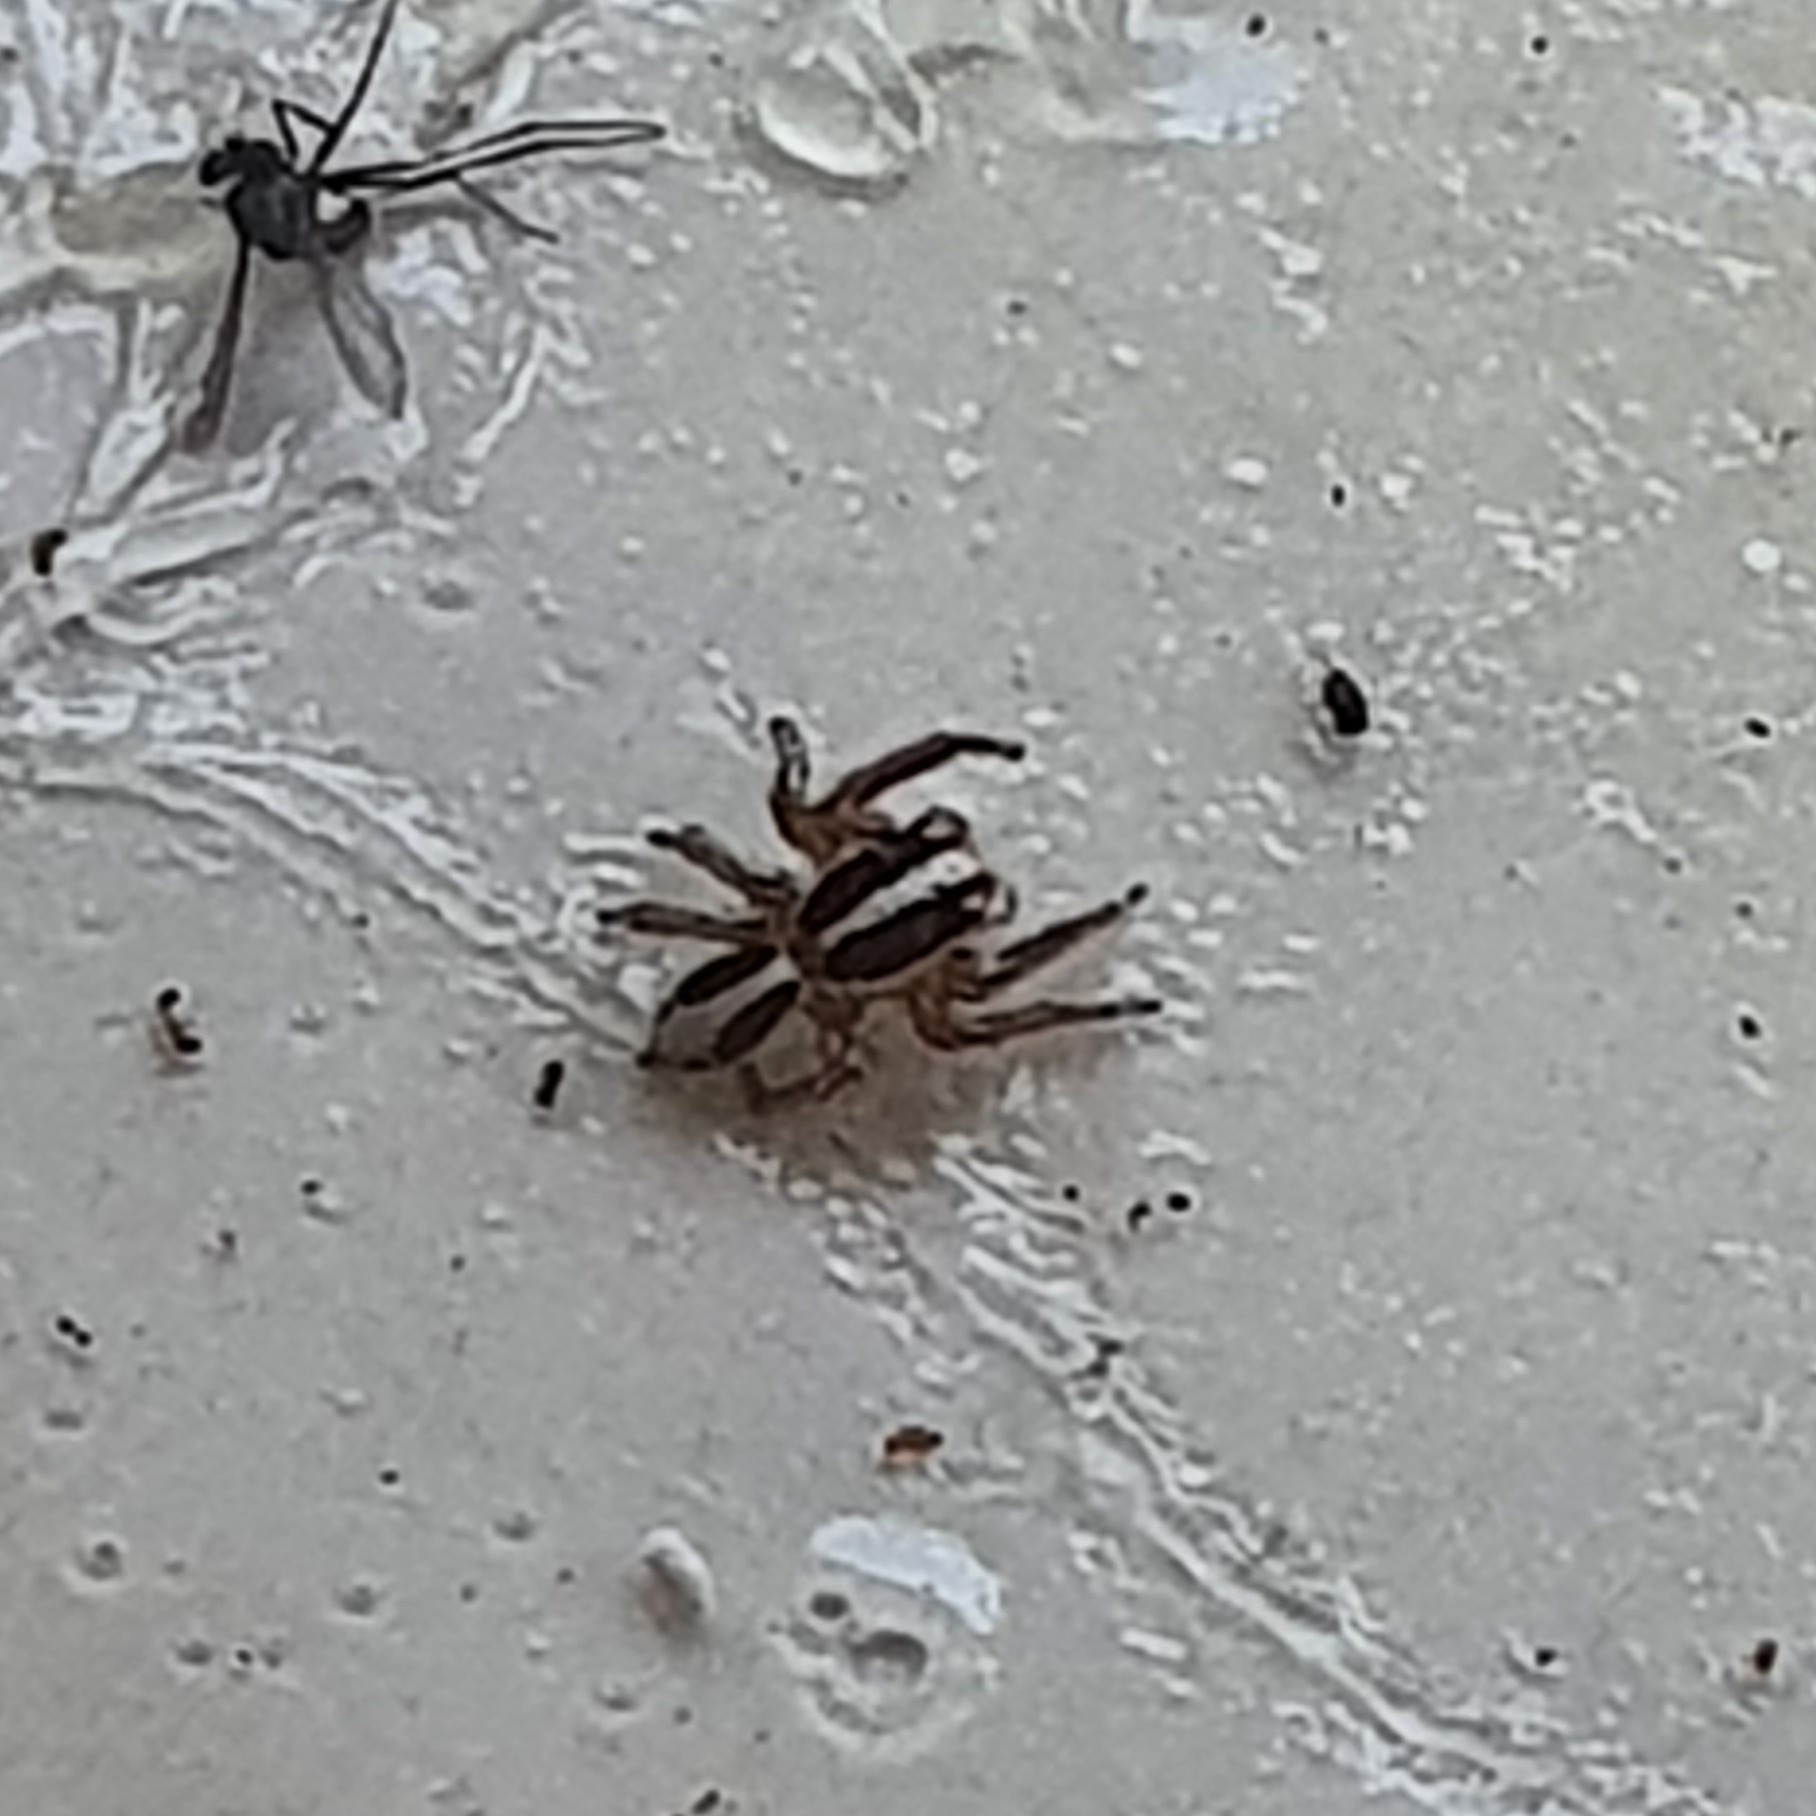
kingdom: Animalia
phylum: Arthropoda
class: Arachnida
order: Araneae
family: Salticidae
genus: Plexippus
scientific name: Plexippus paykulli
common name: Pantropical jumper
